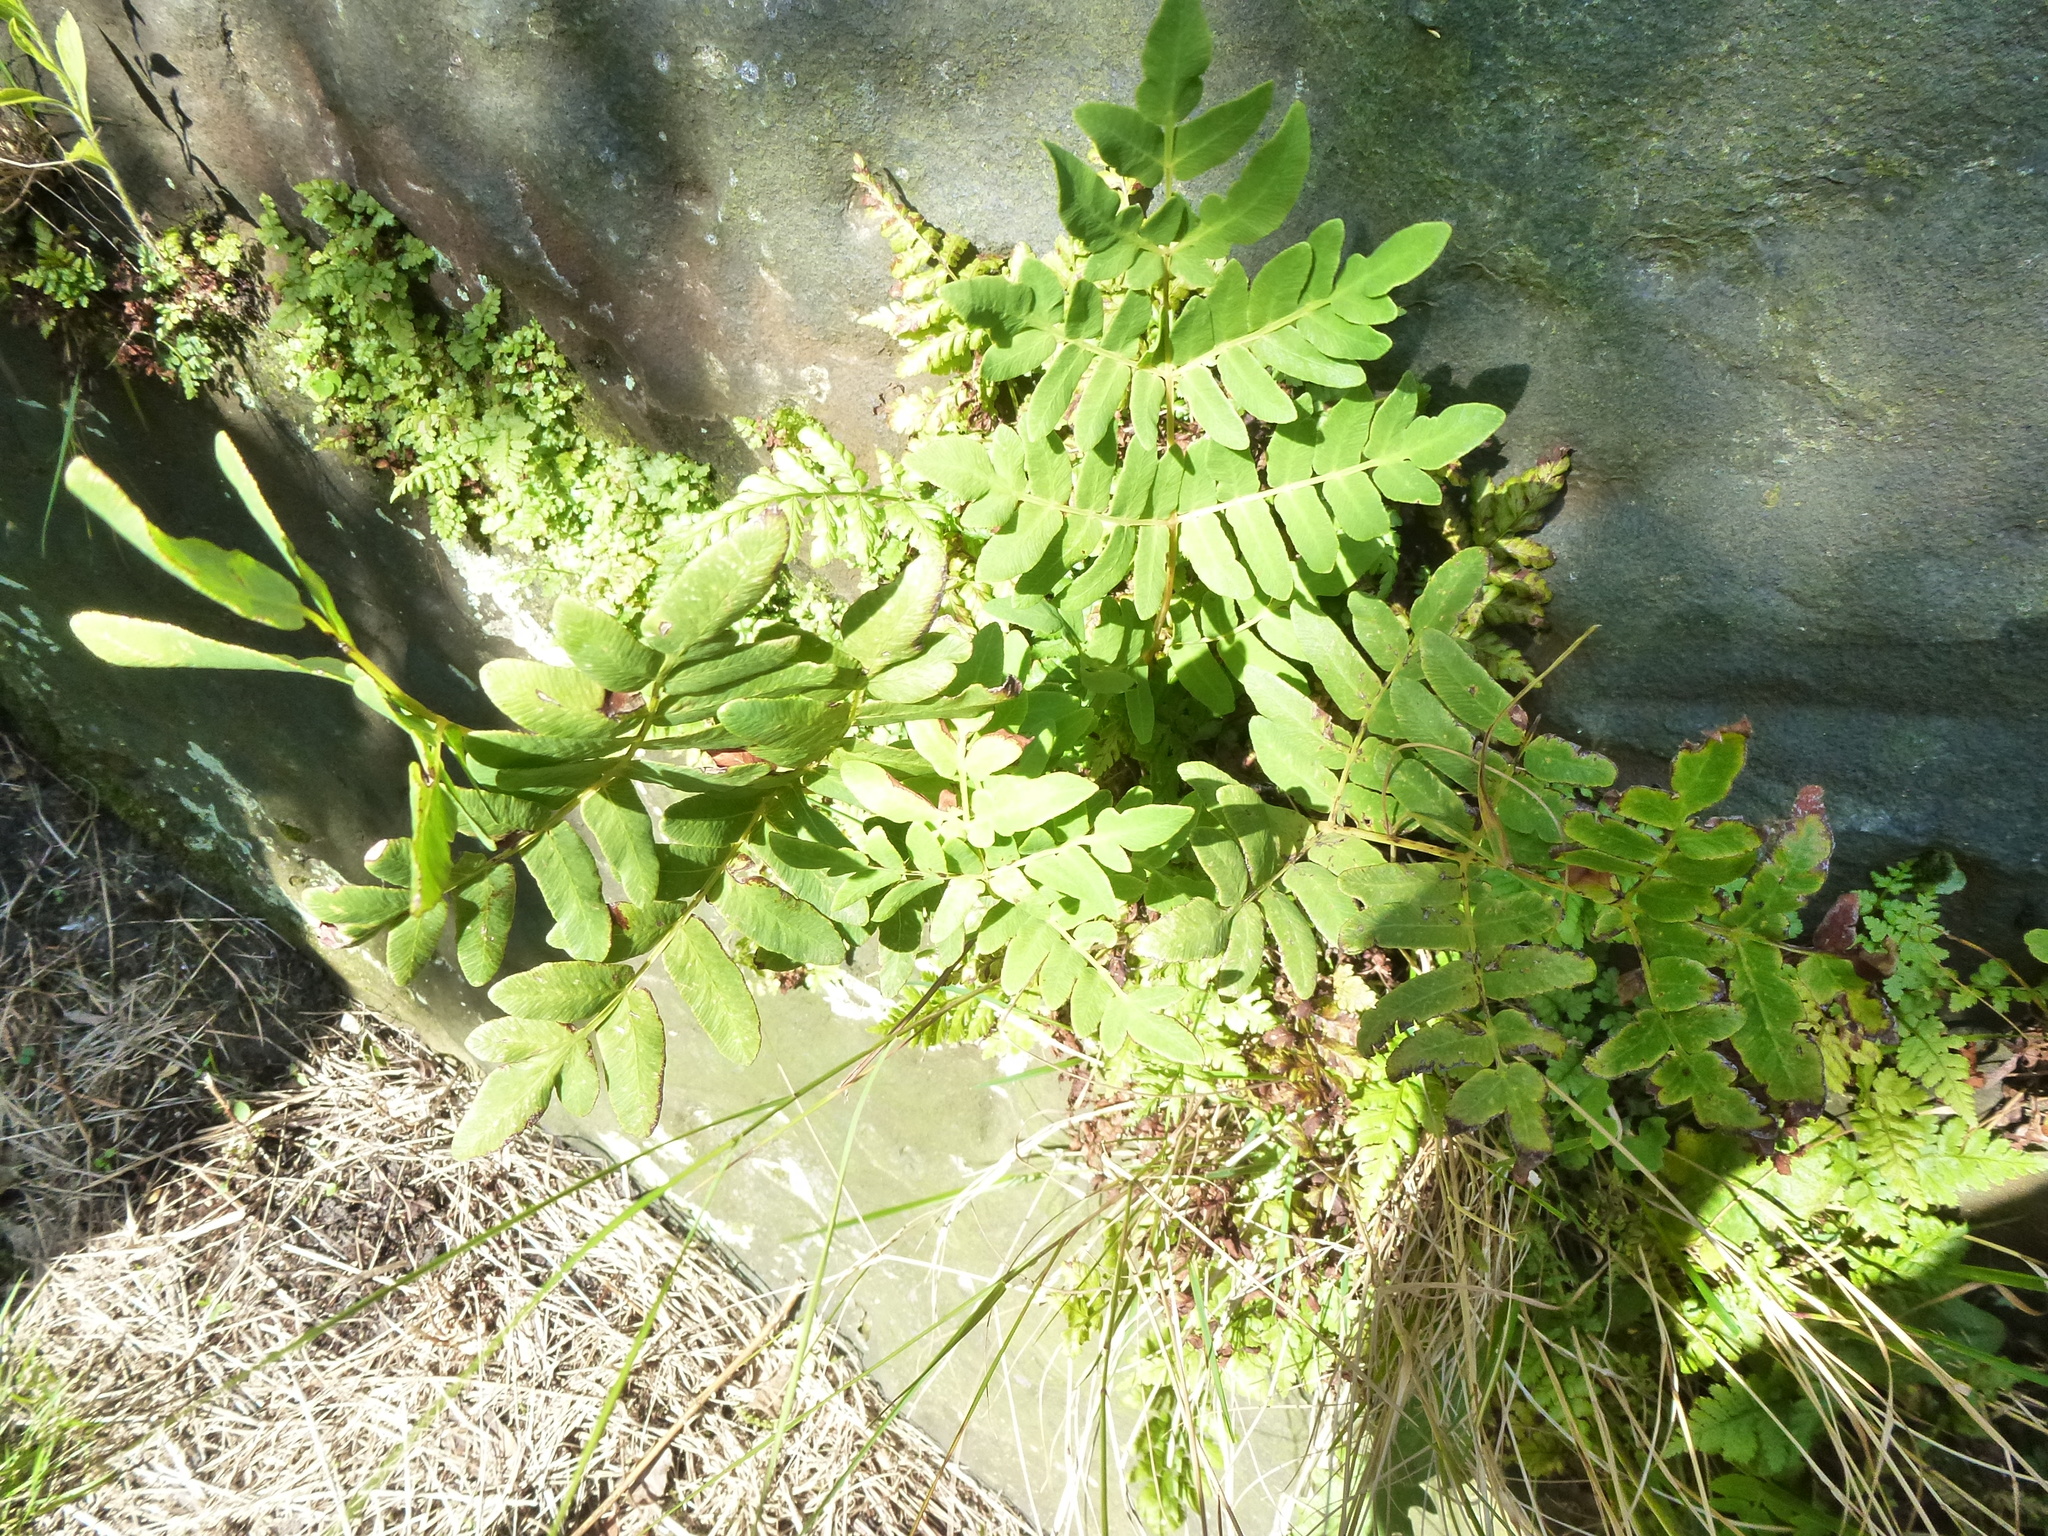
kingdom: Plantae
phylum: Tracheophyta
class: Polypodiopsida
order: Osmundales
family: Osmundaceae
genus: Osmunda
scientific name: Osmunda regalis
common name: Royal fern
